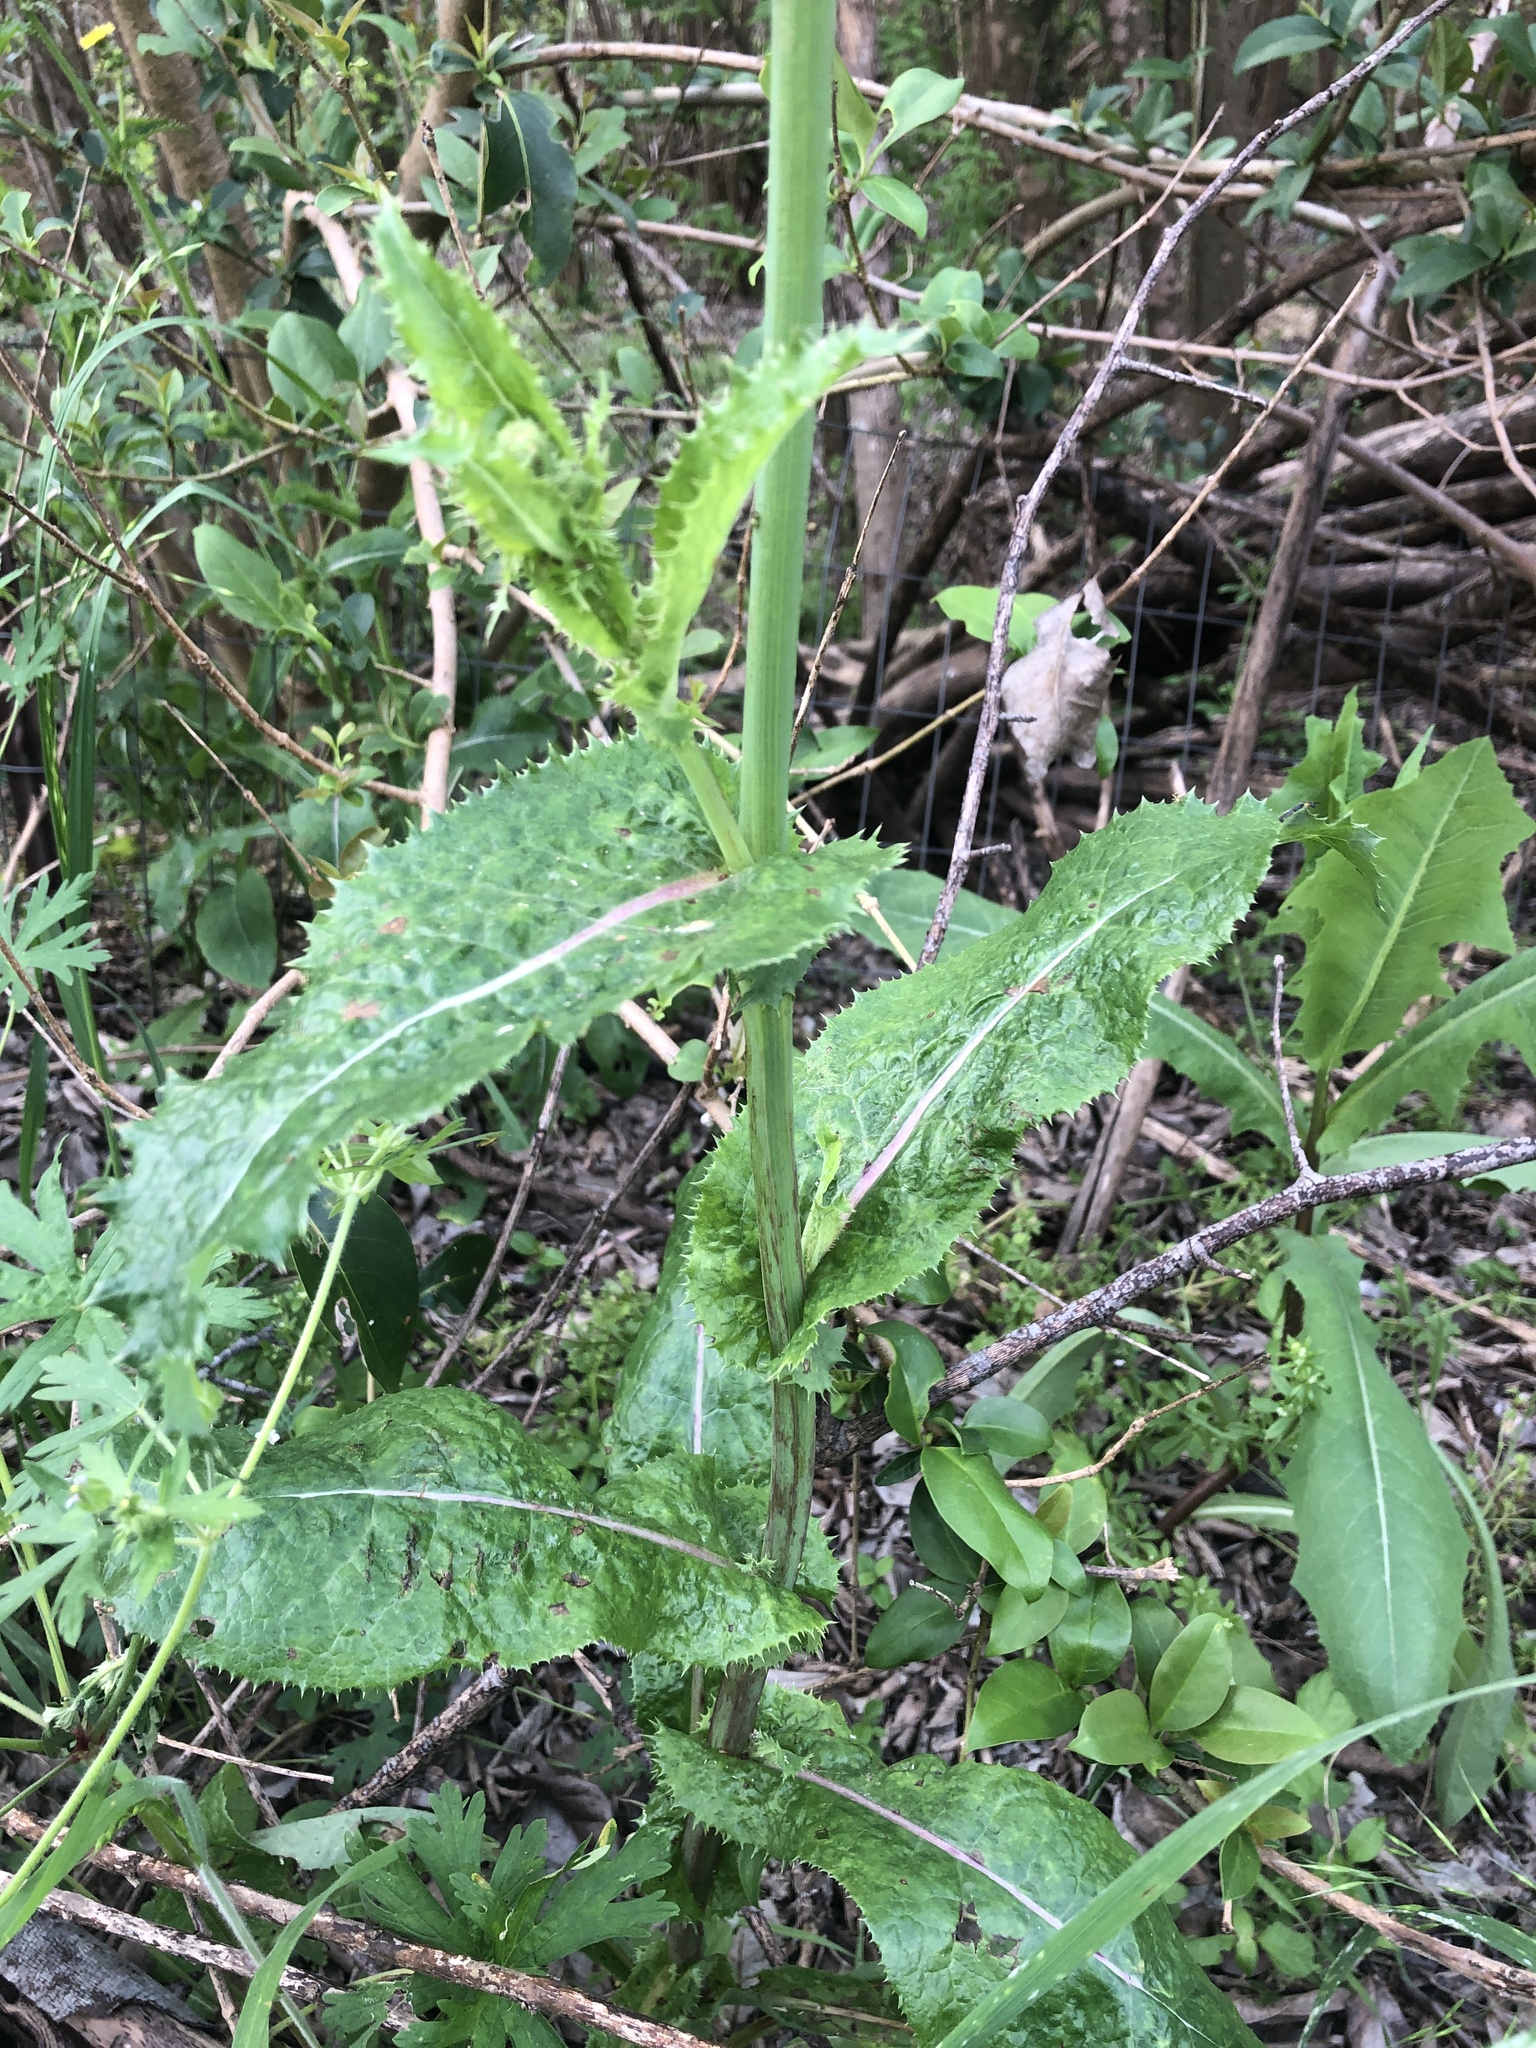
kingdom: Plantae
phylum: Tracheophyta
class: Magnoliopsida
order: Asterales
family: Asteraceae
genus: Sonchus
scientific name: Sonchus asper
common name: Prickly sow-thistle
